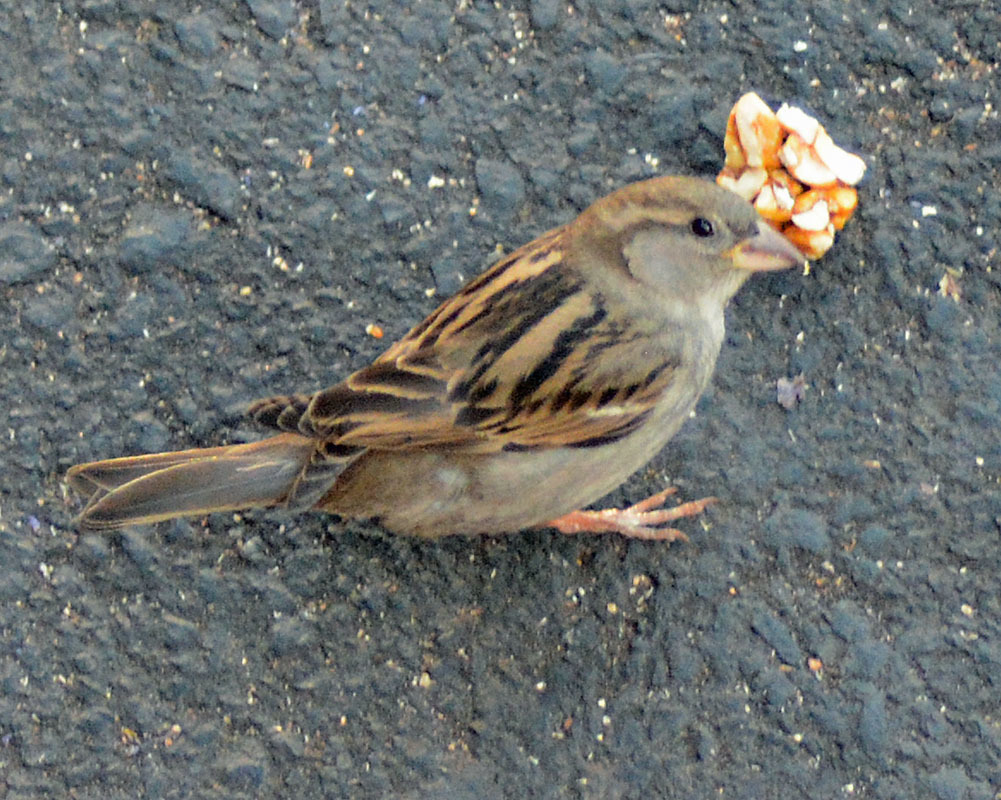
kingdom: Animalia
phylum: Chordata
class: Aves
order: Passeriformes
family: Passeridae
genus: Passer
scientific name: Passer domesticus
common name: House sparrow
